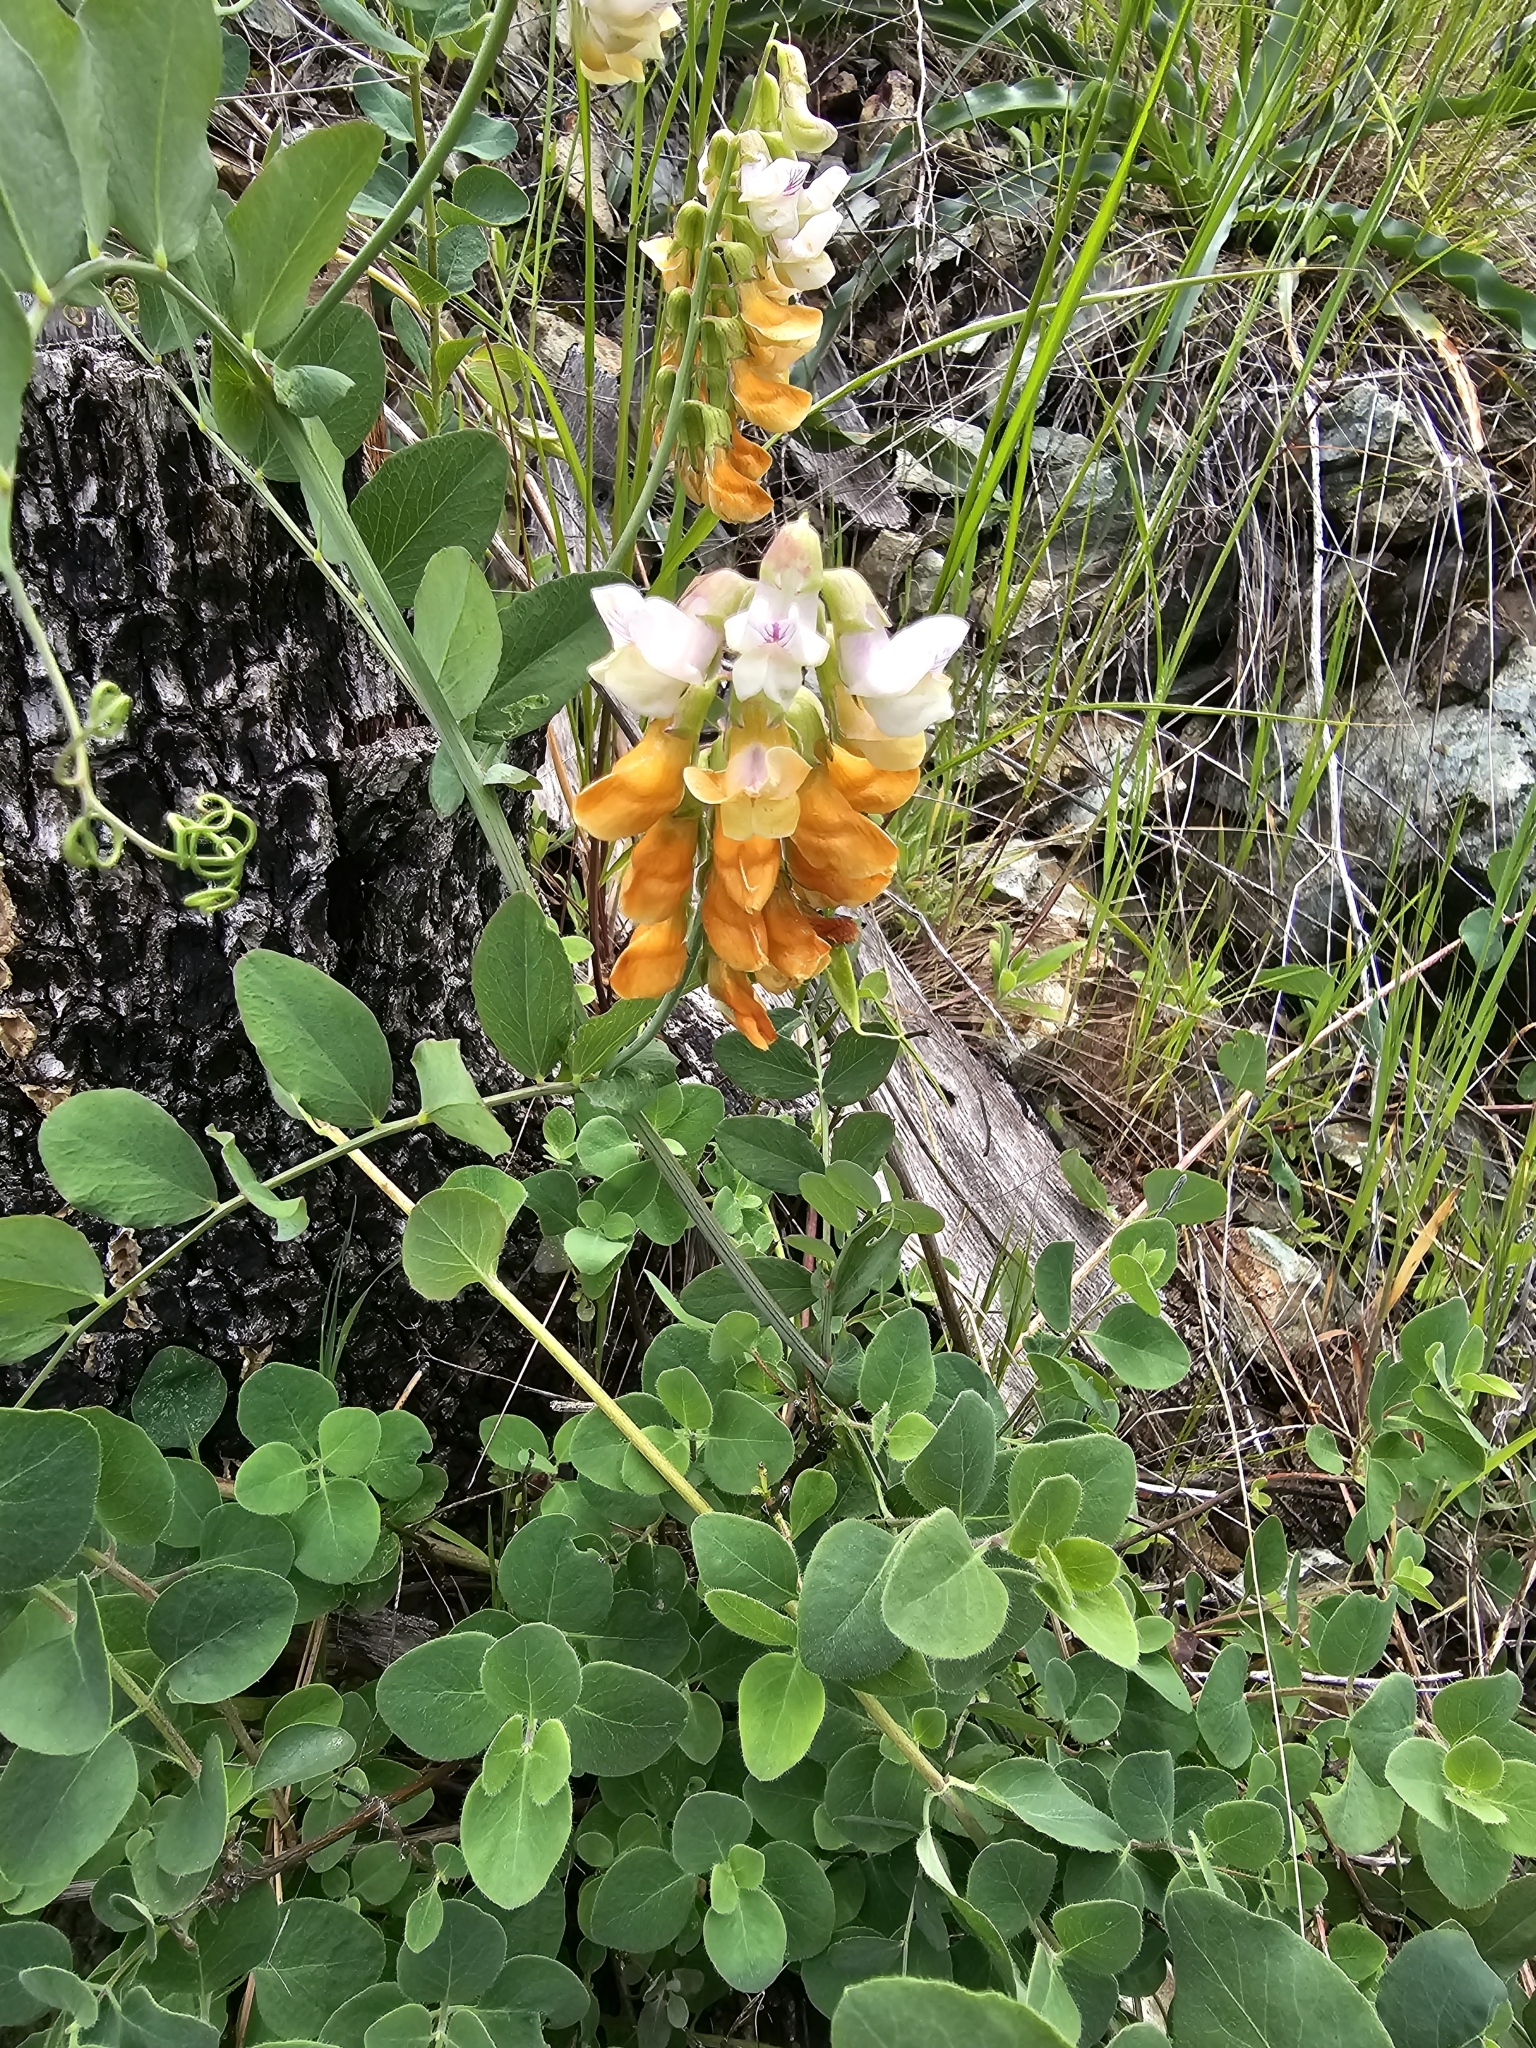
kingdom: Plantae
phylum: Tracheophyta
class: Magnoliopsida
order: Fabales
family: Fabaceae
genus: Lathyrus
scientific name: Lathyrus sulphureus
